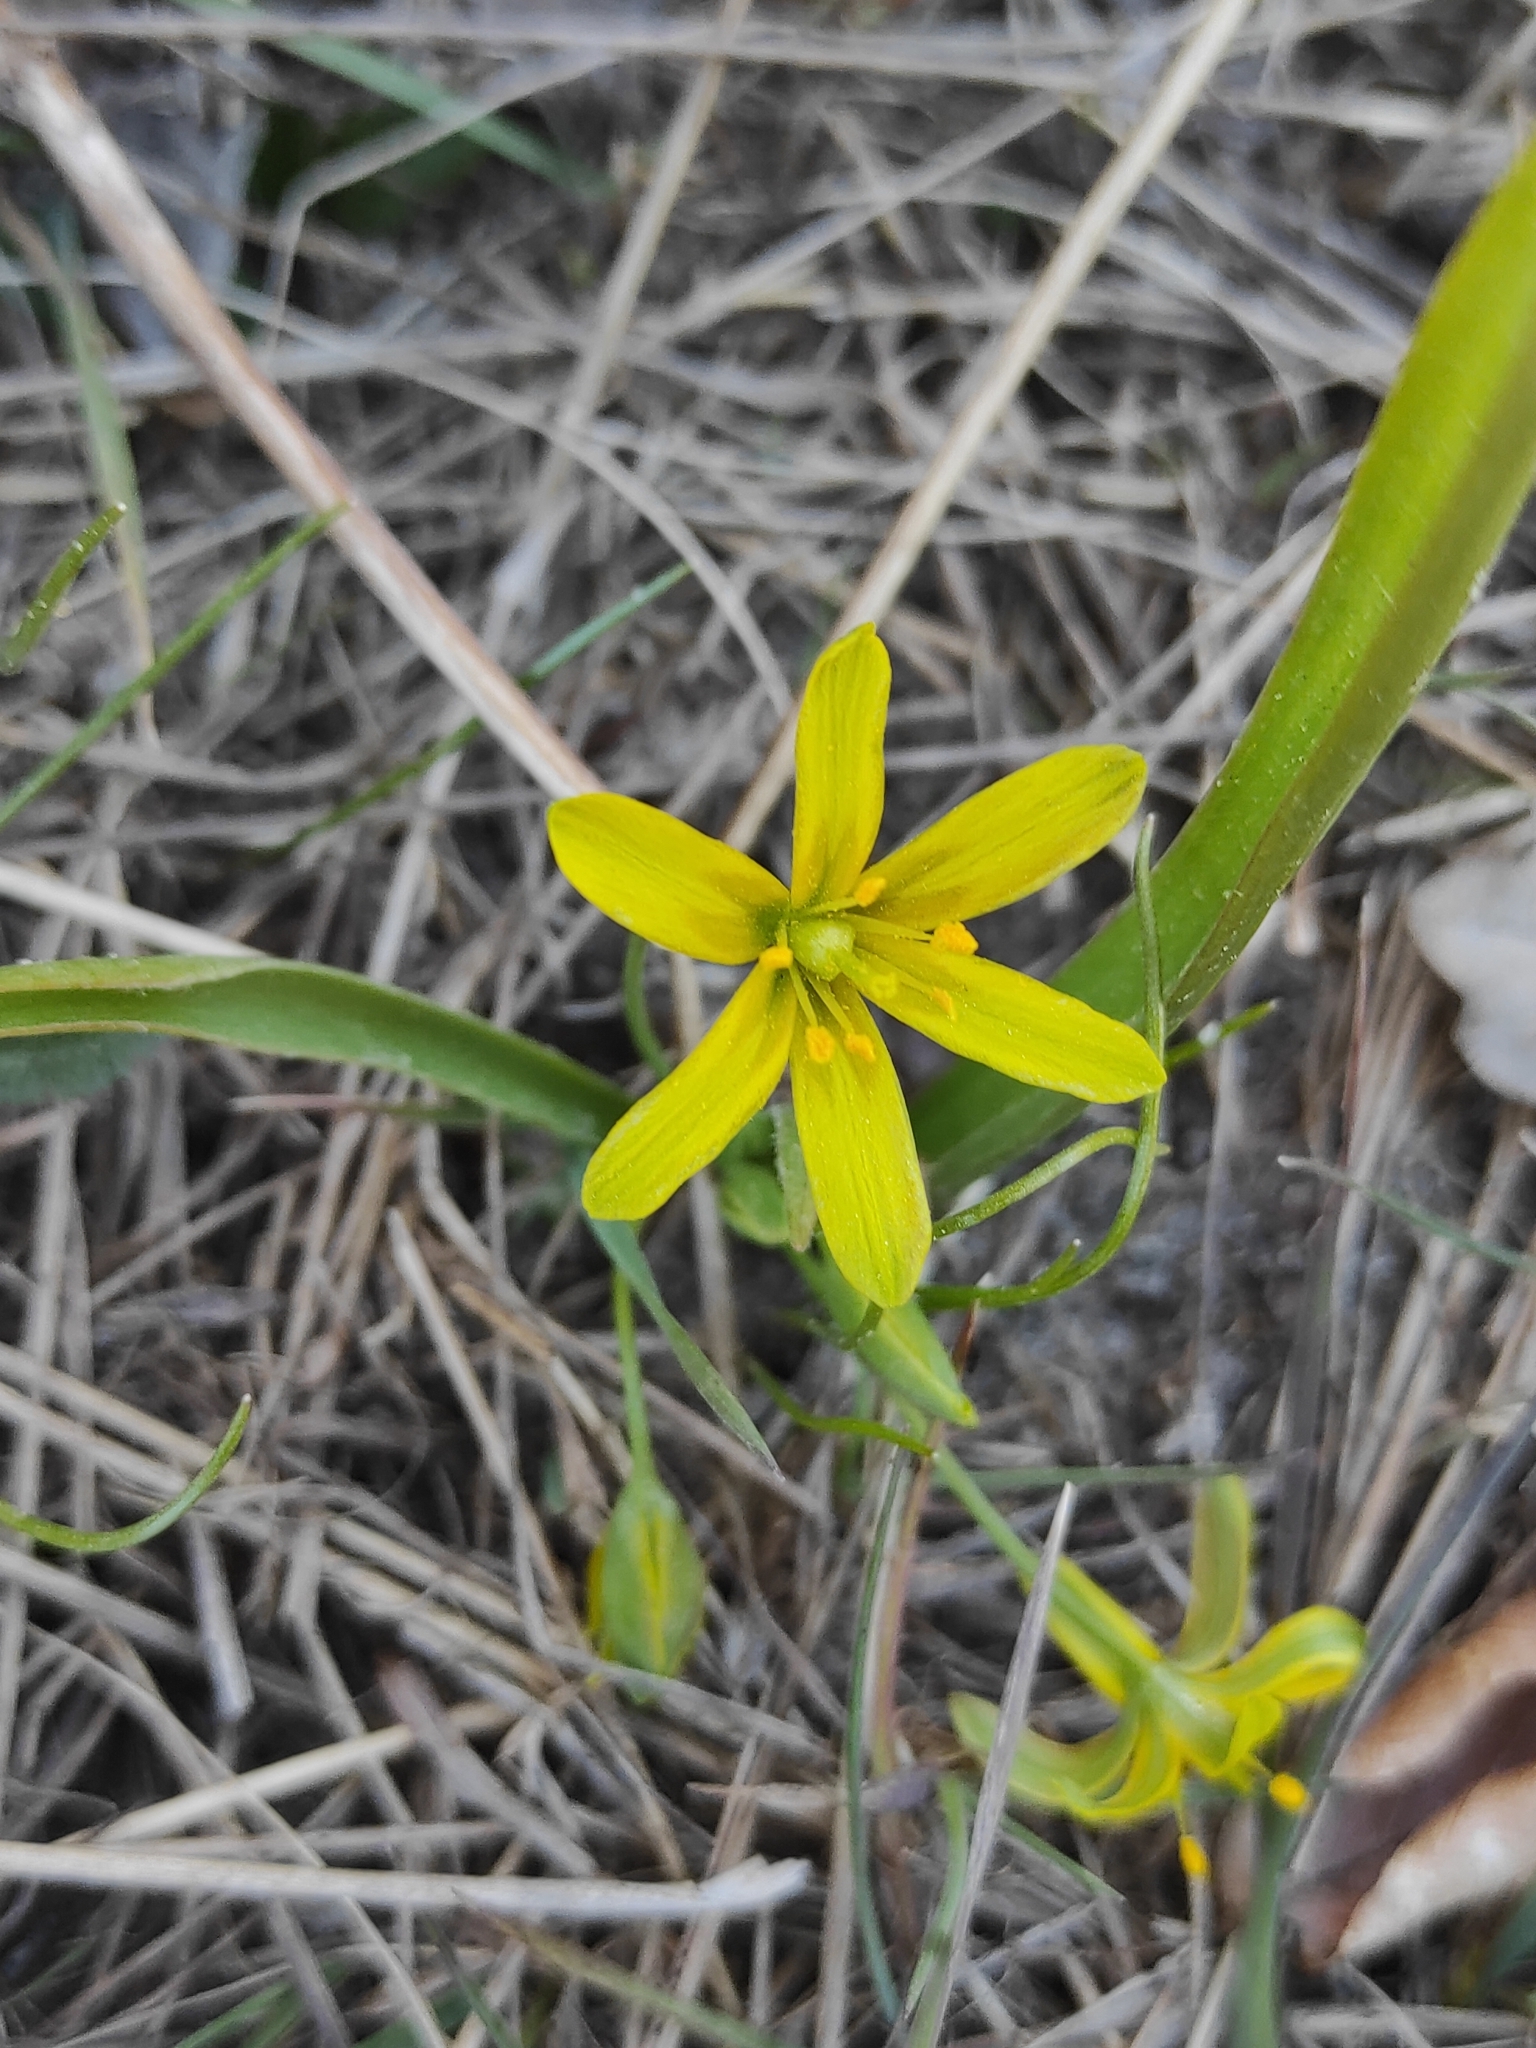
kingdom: Plantae
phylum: Tracheophyta
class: Liliopsida
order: Liliales
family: Liliaceae
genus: Gagea
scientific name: Gagea lutea
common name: Yellow star-of-bethlehem
